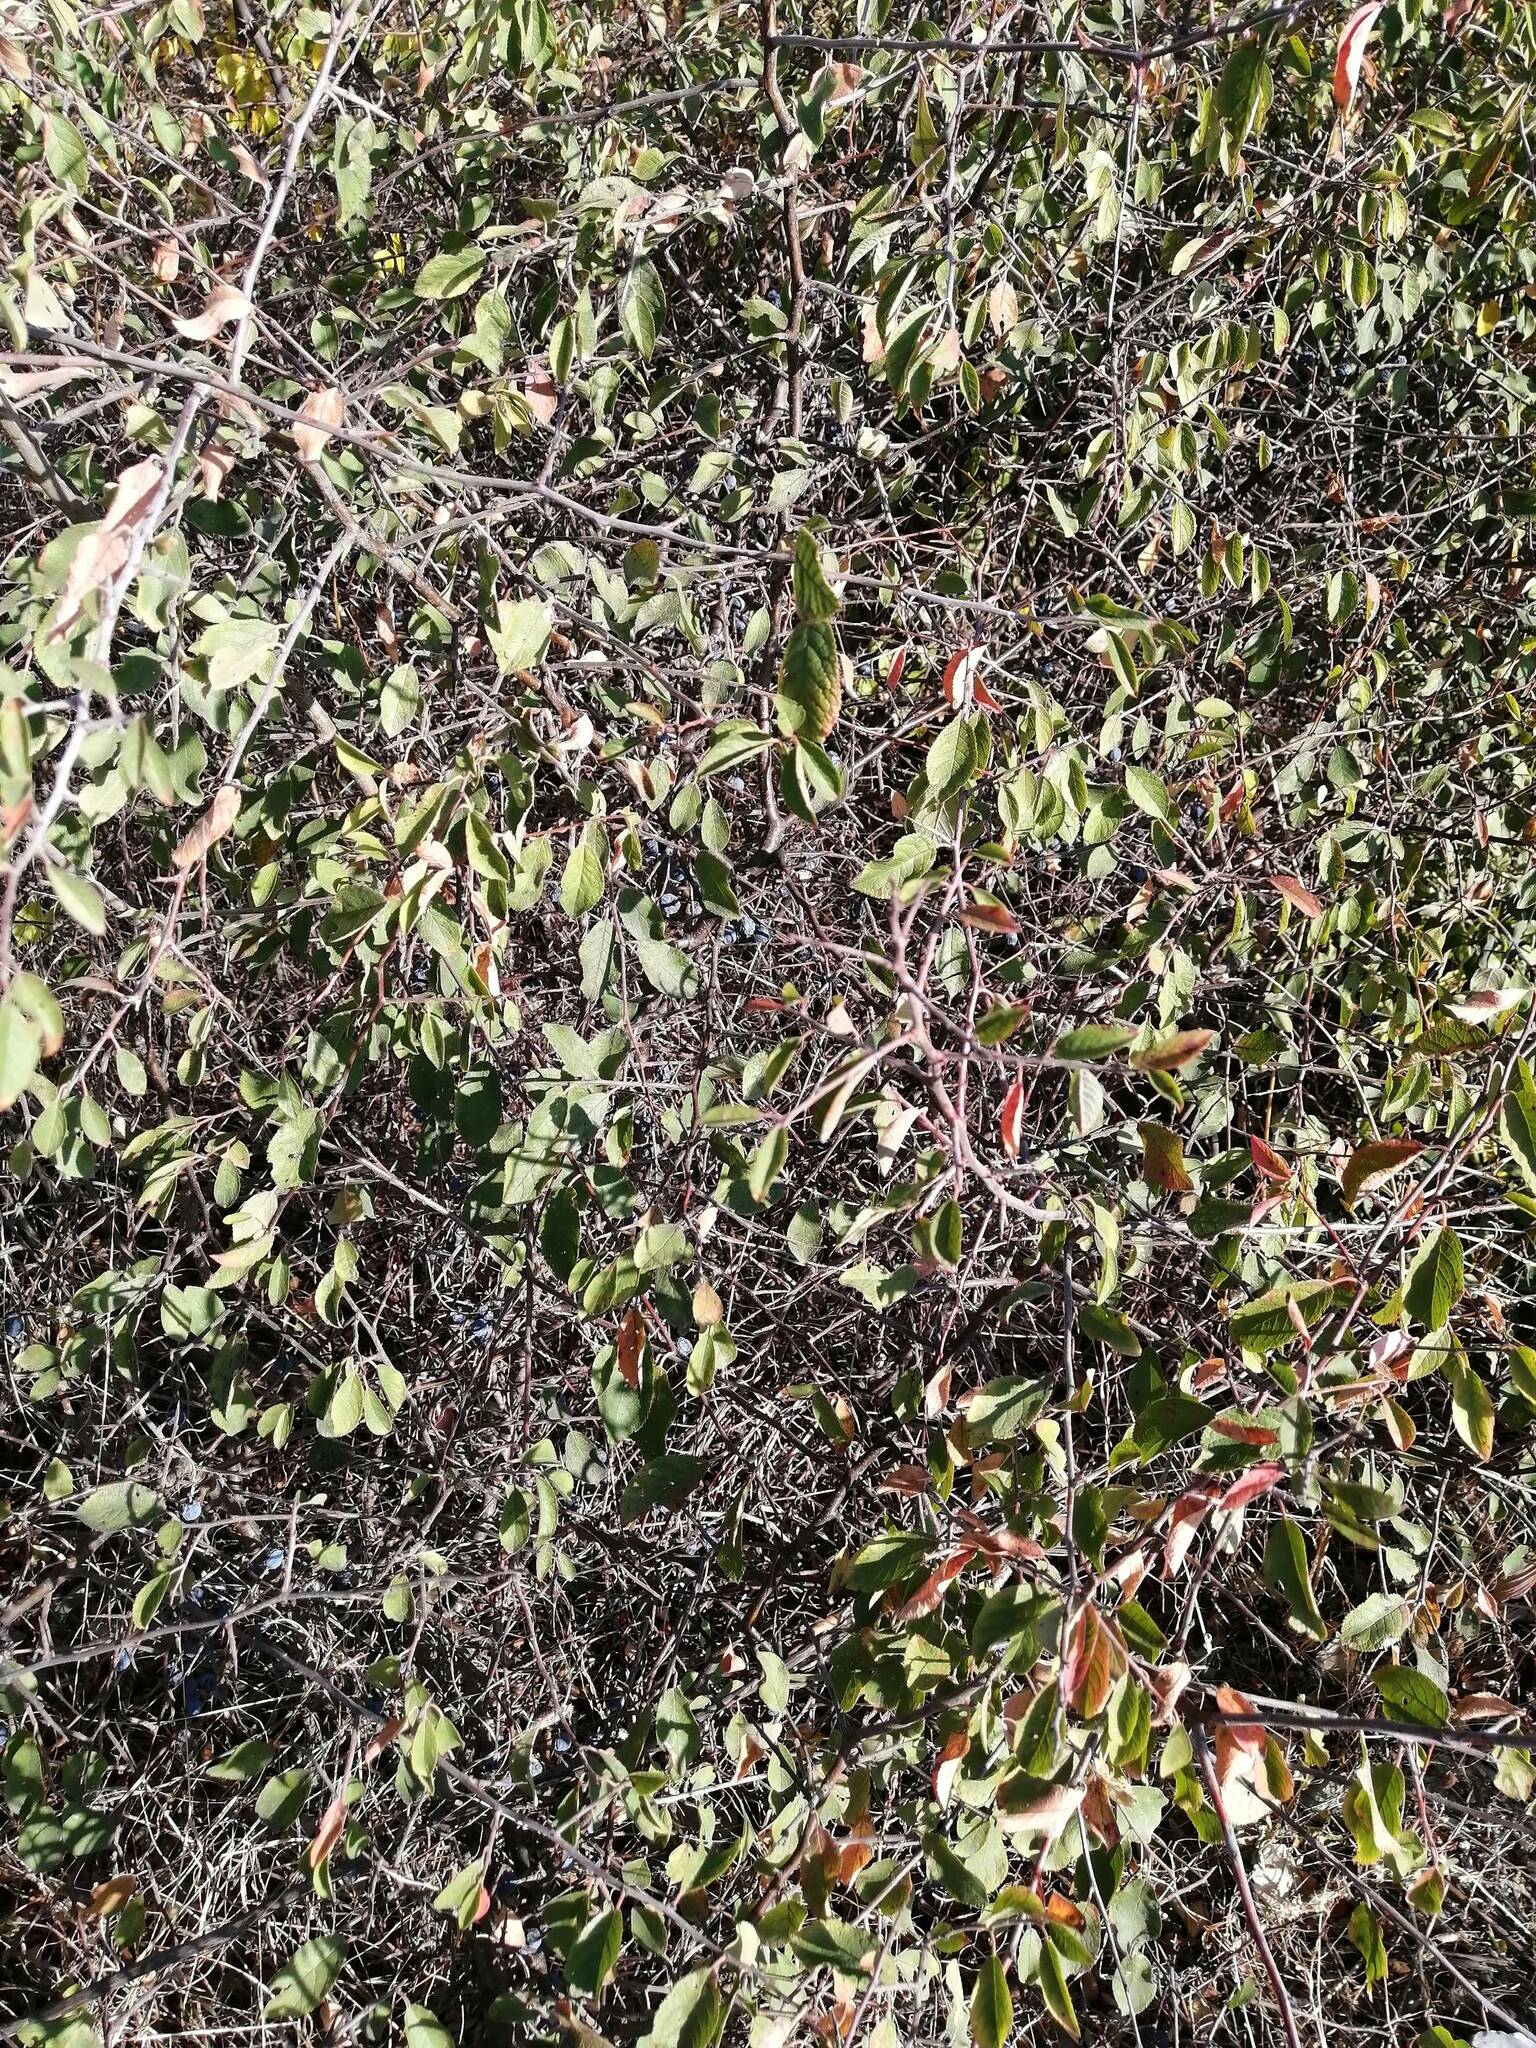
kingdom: Plantae
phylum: Tracheophyta
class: Magnoliopsida
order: Rosales
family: Rosaceae
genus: Prunus
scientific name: Prunus spinosa
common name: Blackthorn
